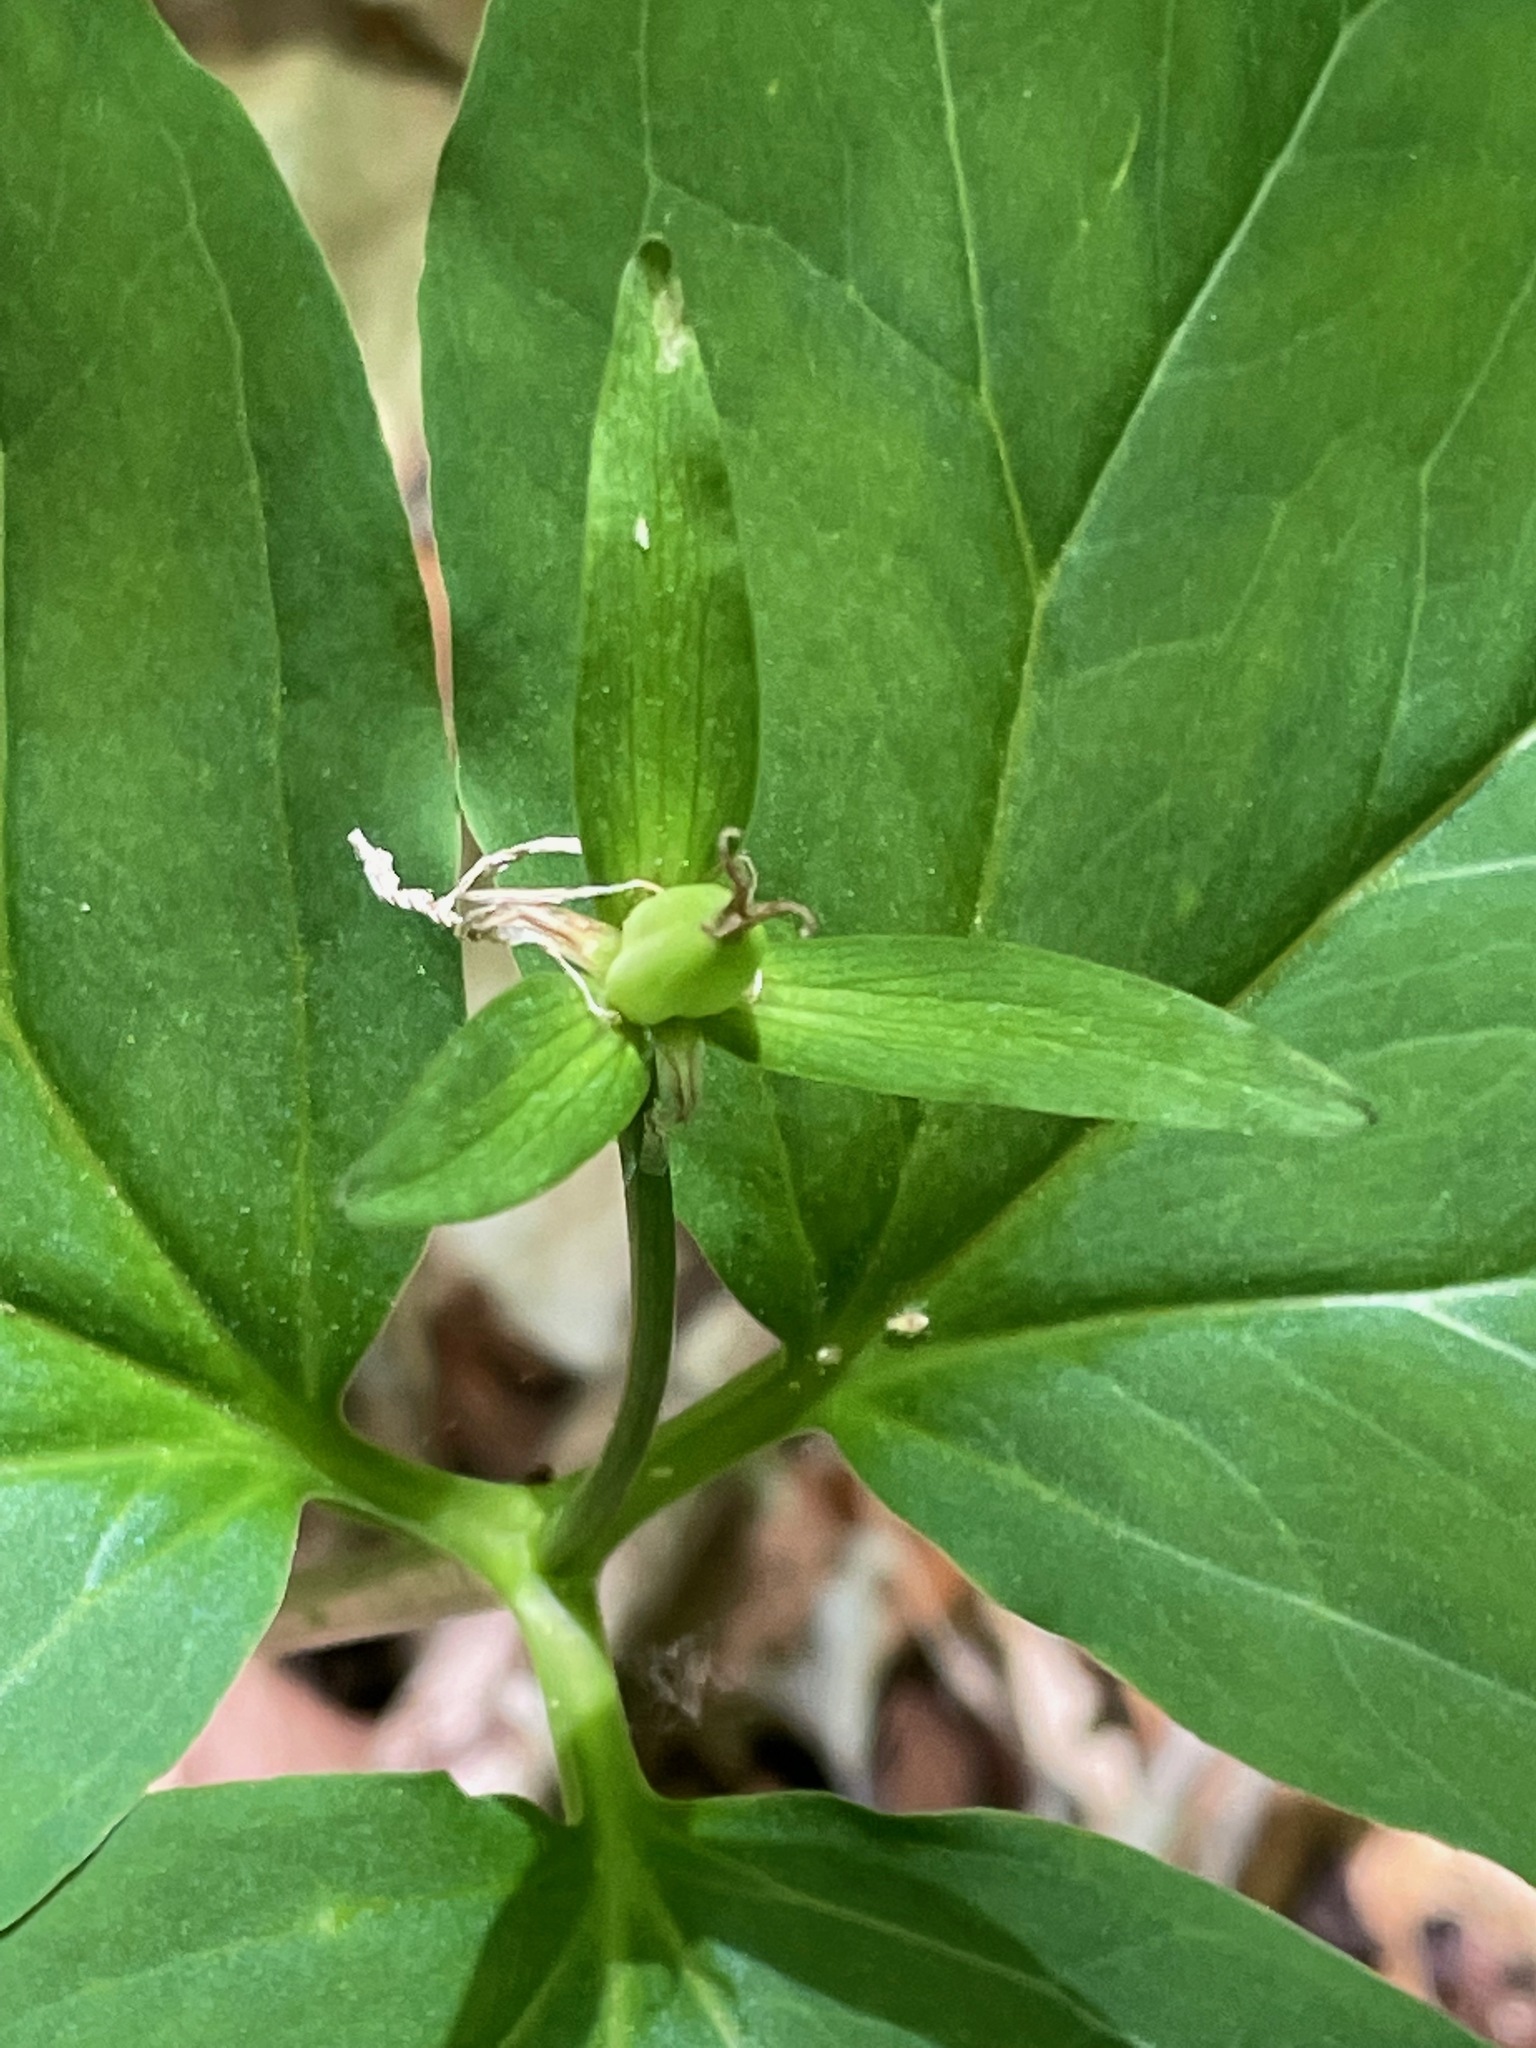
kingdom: Plantae
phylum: Tracheophyta
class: Liliopsida
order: Liliales
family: Melanthiaceae
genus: Trillium
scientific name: Trillium undulatum
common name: Paint trillium
